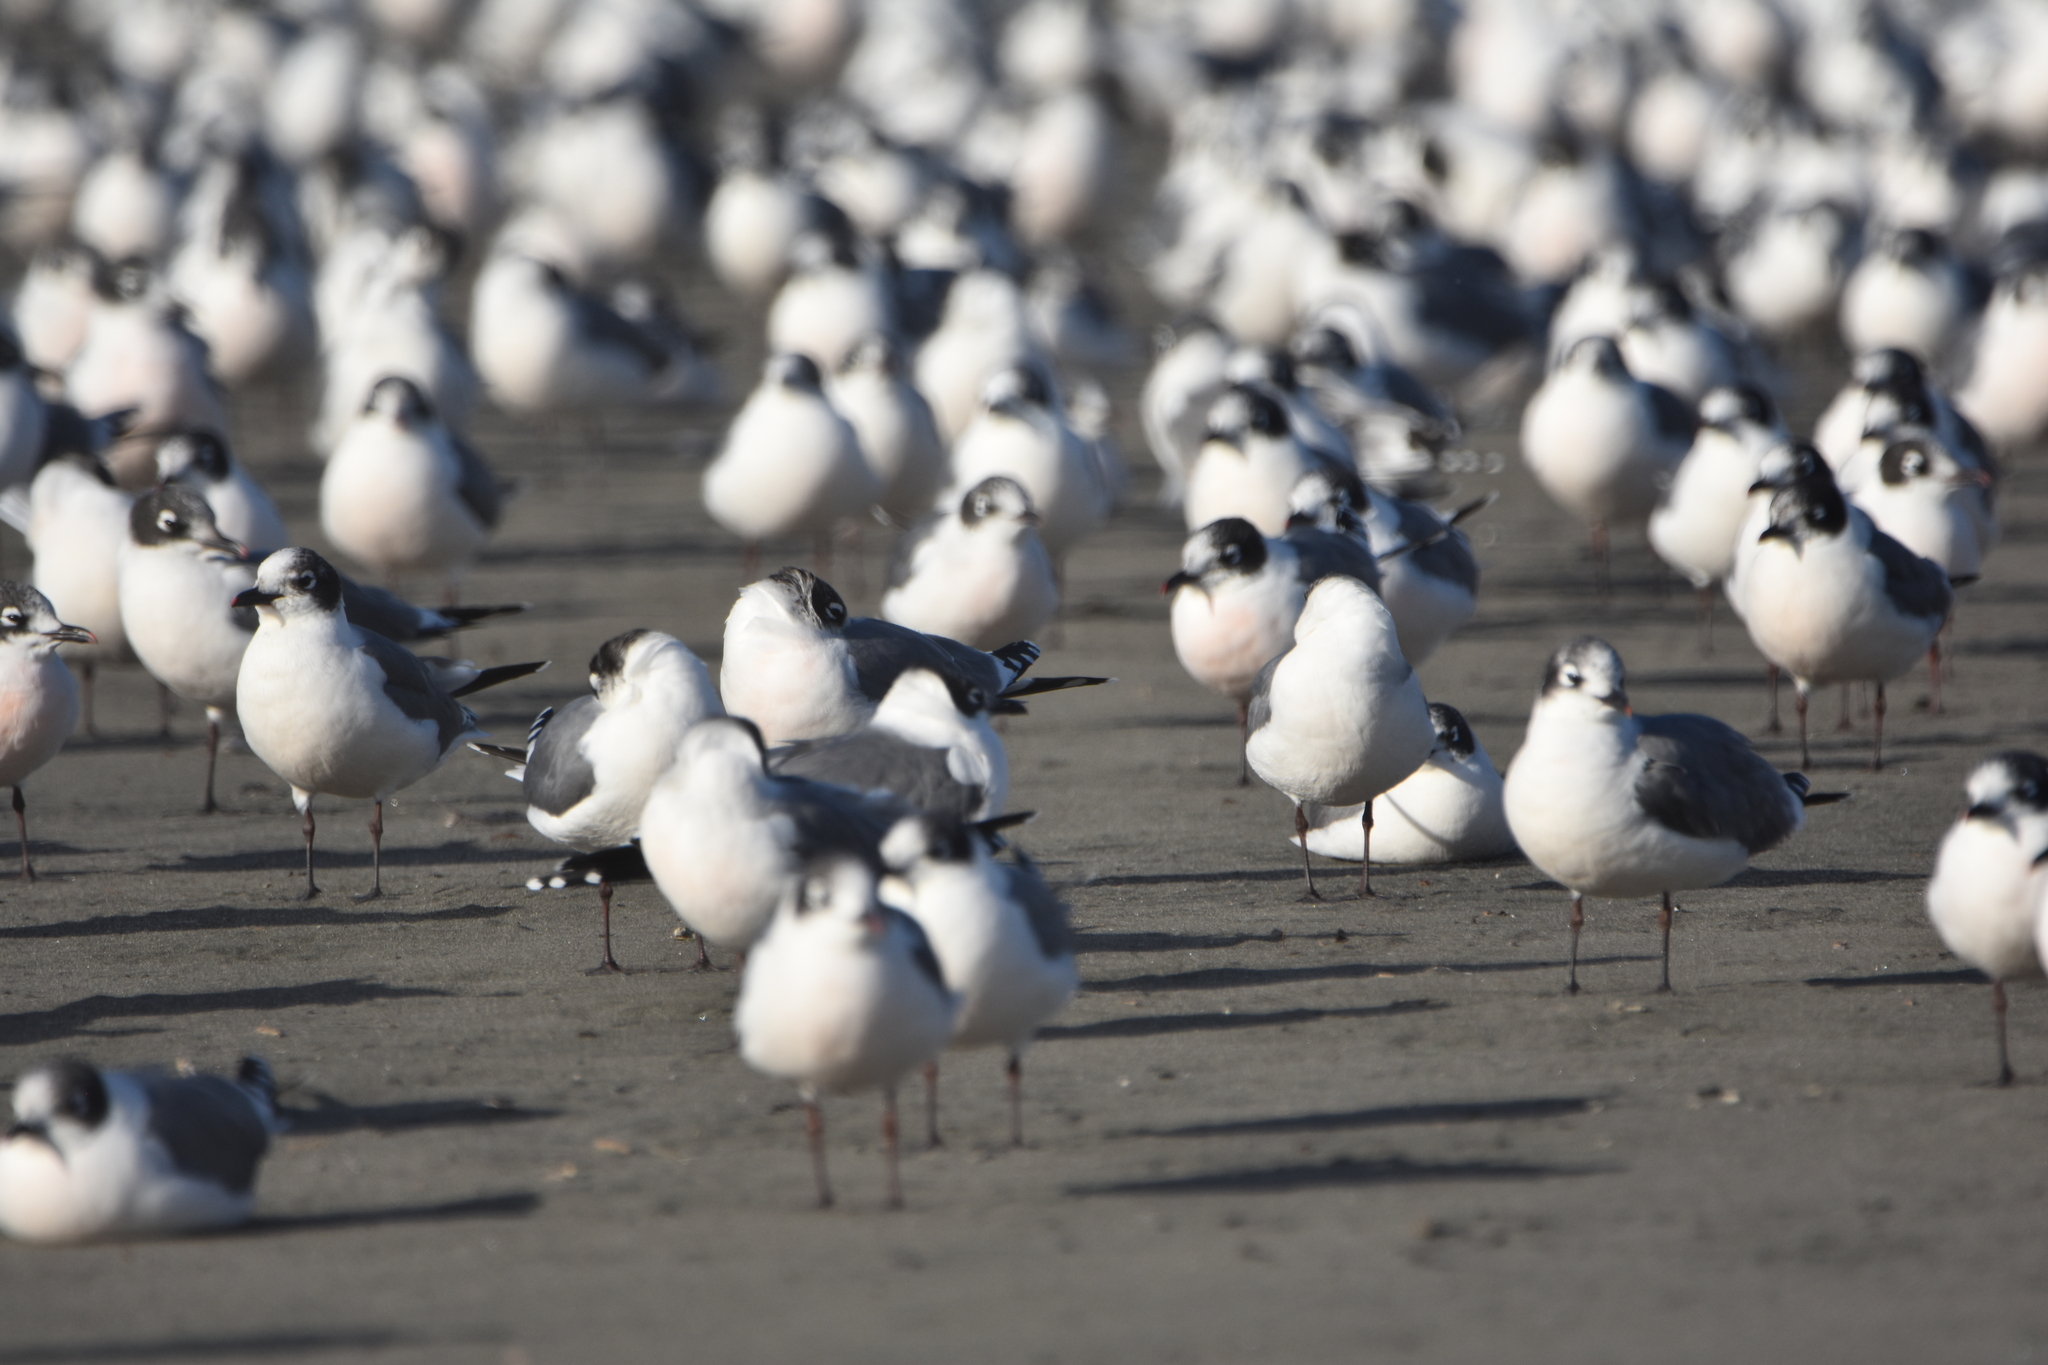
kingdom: Animalia
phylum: Chordata
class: Aves
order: Charadriiformes
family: Laridae
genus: Leucophaeus
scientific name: Leucophaeus pipixcan
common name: Franklin's gull
